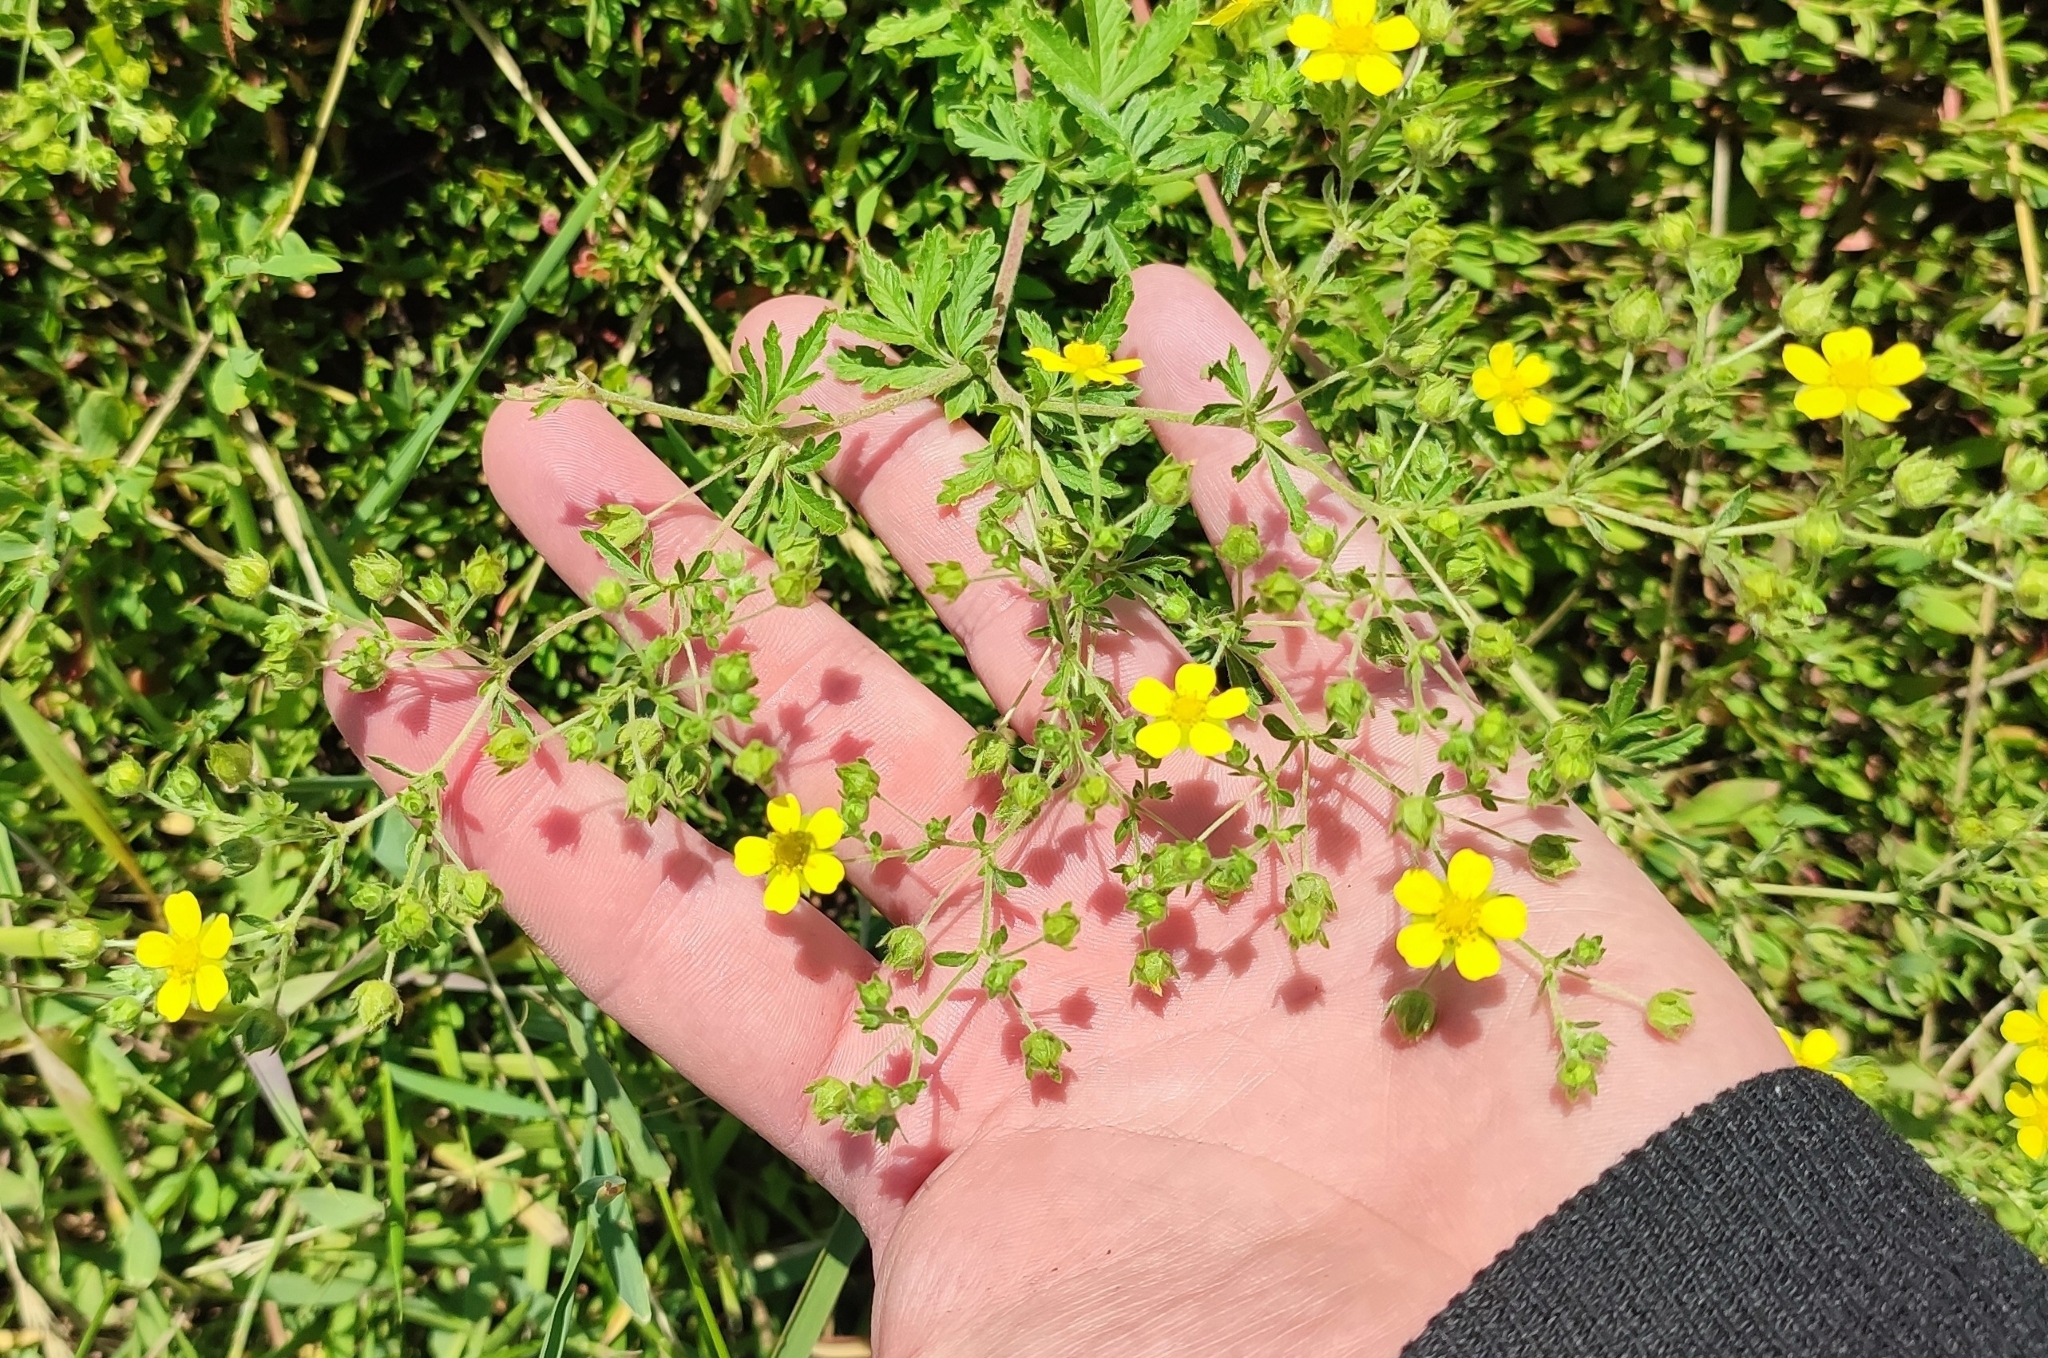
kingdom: Plantae
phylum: Tracheophyta
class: Magnoliopsida
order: Rosales
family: Rosaceae
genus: Potentilla
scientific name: Potentilla tobolensis
